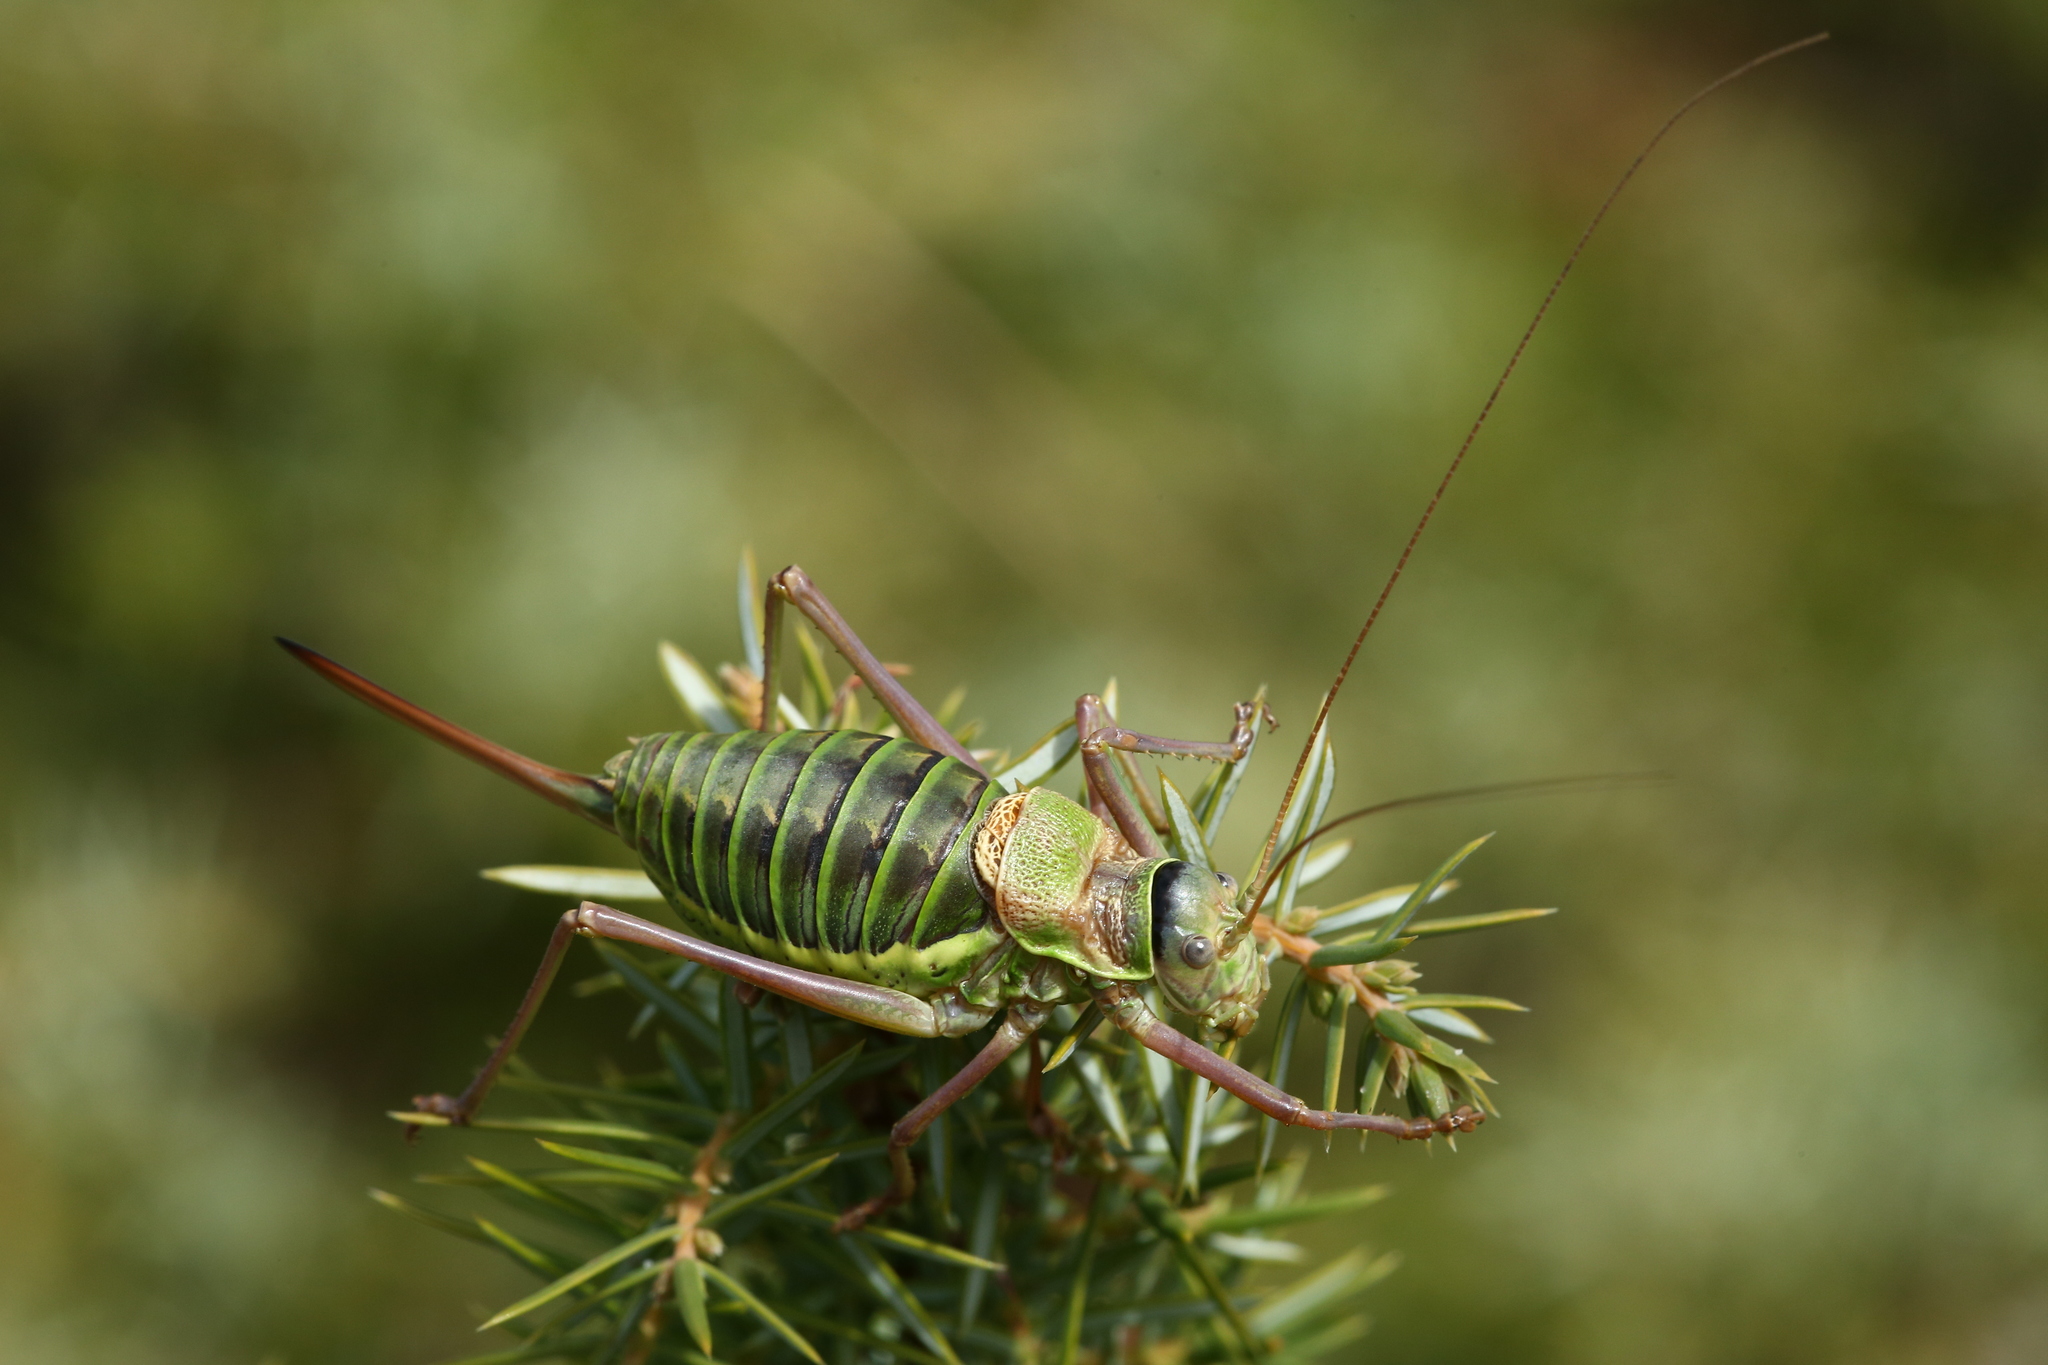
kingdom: Animalia
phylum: Arthropoda
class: Insecta
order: Orthoptera
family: Tettigoniidae
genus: Ephippiger
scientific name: Ephippiger diurnus
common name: Western saddle bush-cricket
